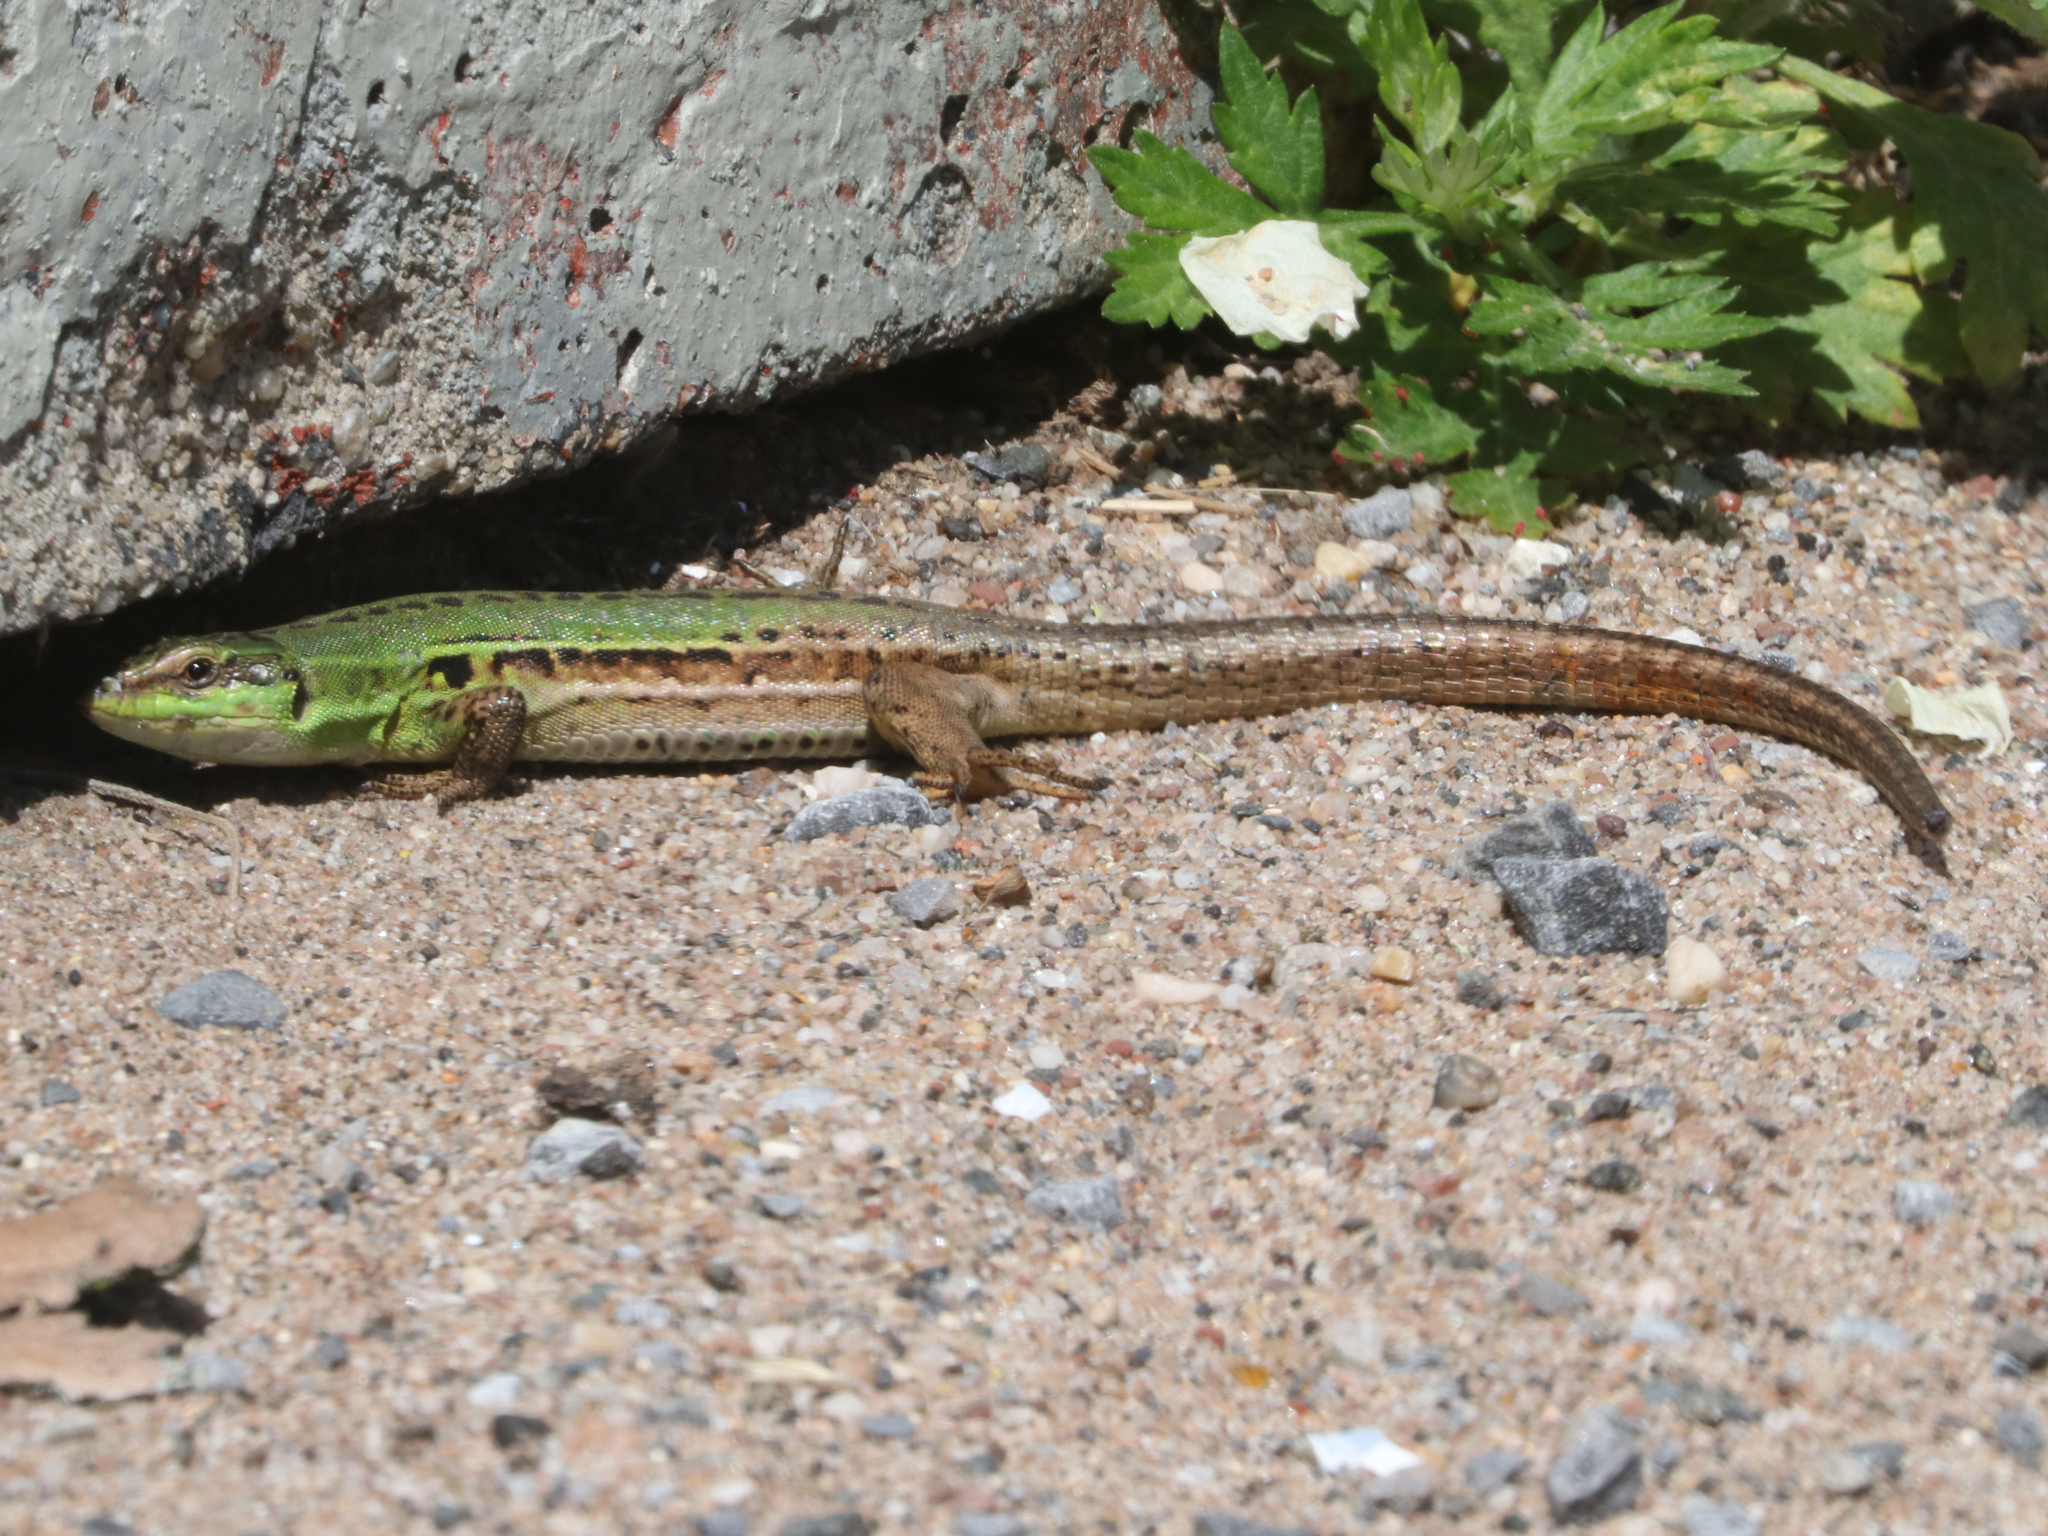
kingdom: Animalia
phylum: Chordata
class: Squamata
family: Lacertidae
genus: Podarcis
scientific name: Podarcis siculus
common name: Italian wall lizard
